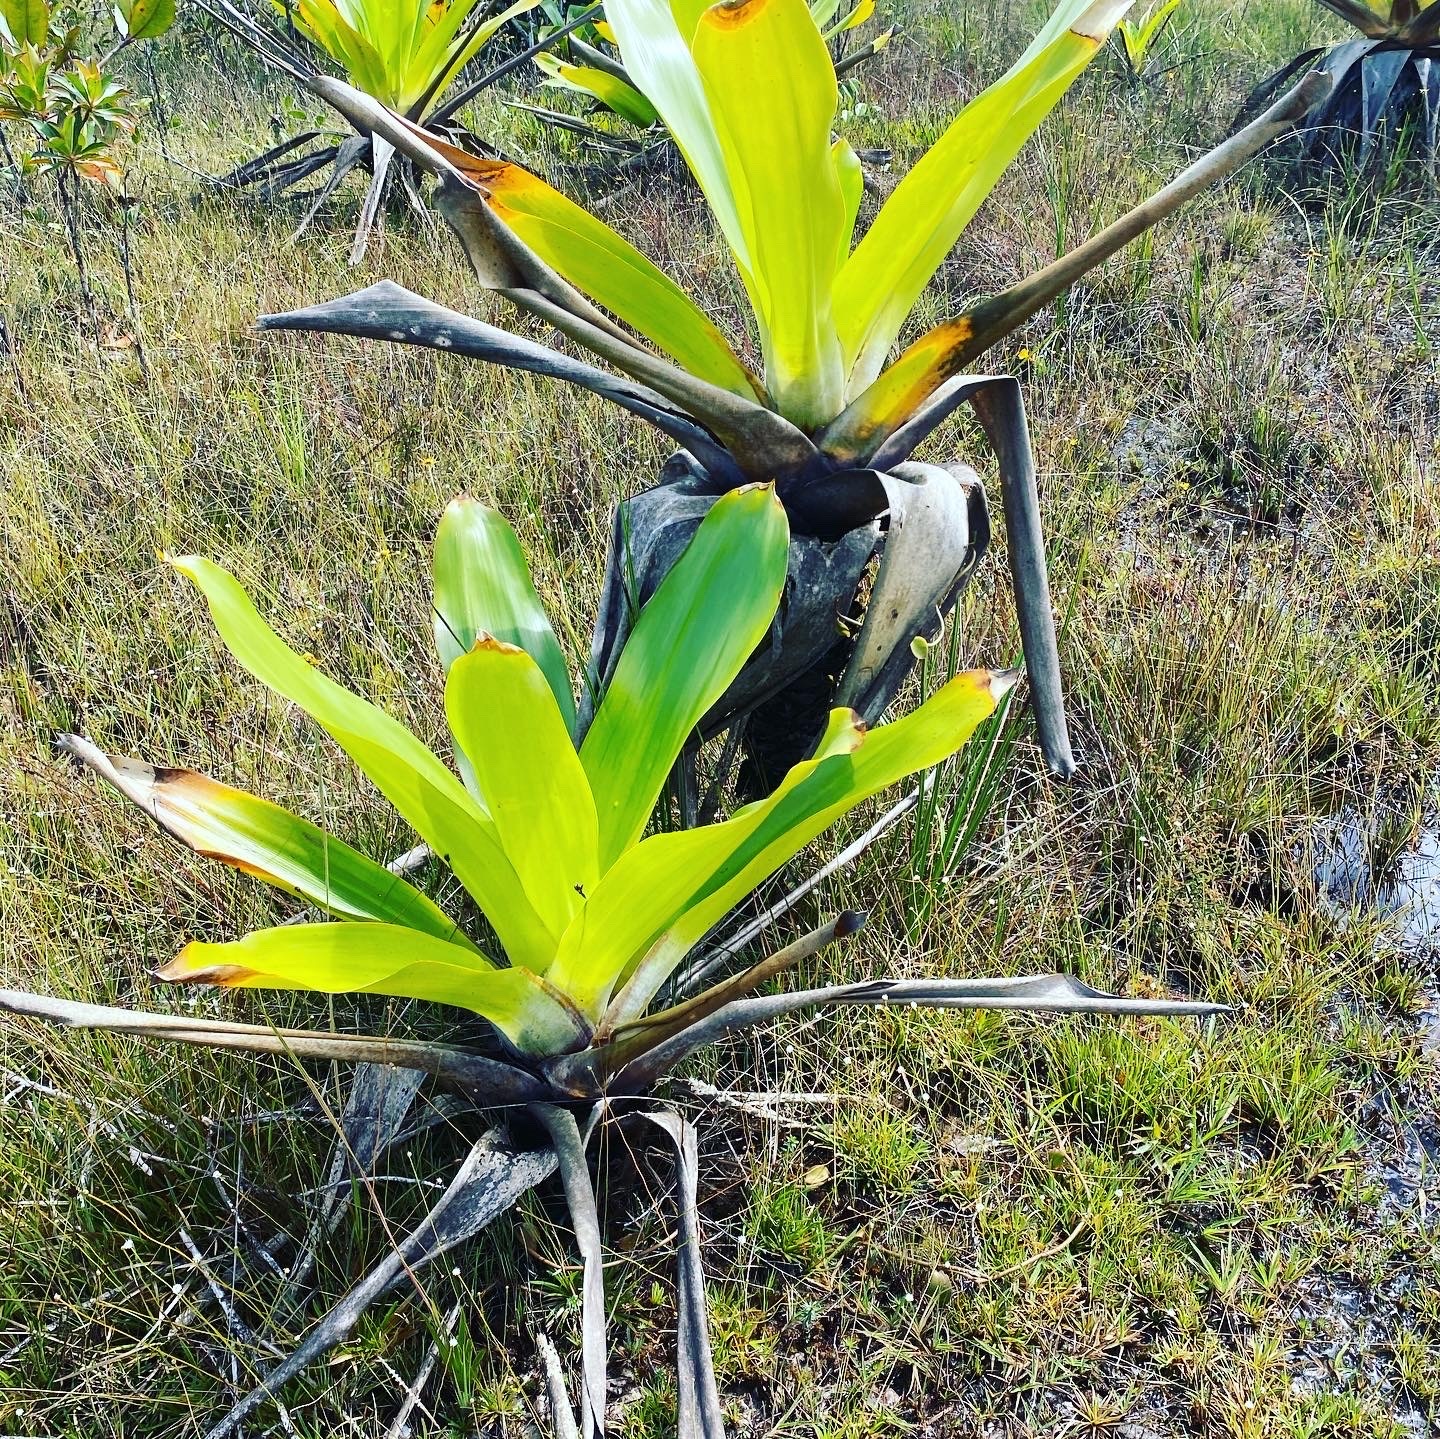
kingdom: Plantae
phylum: Tracheophyta
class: Liliopsida
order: Poales
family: Bromeliaceae
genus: Brocchinia
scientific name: Brocchinia micrantha
